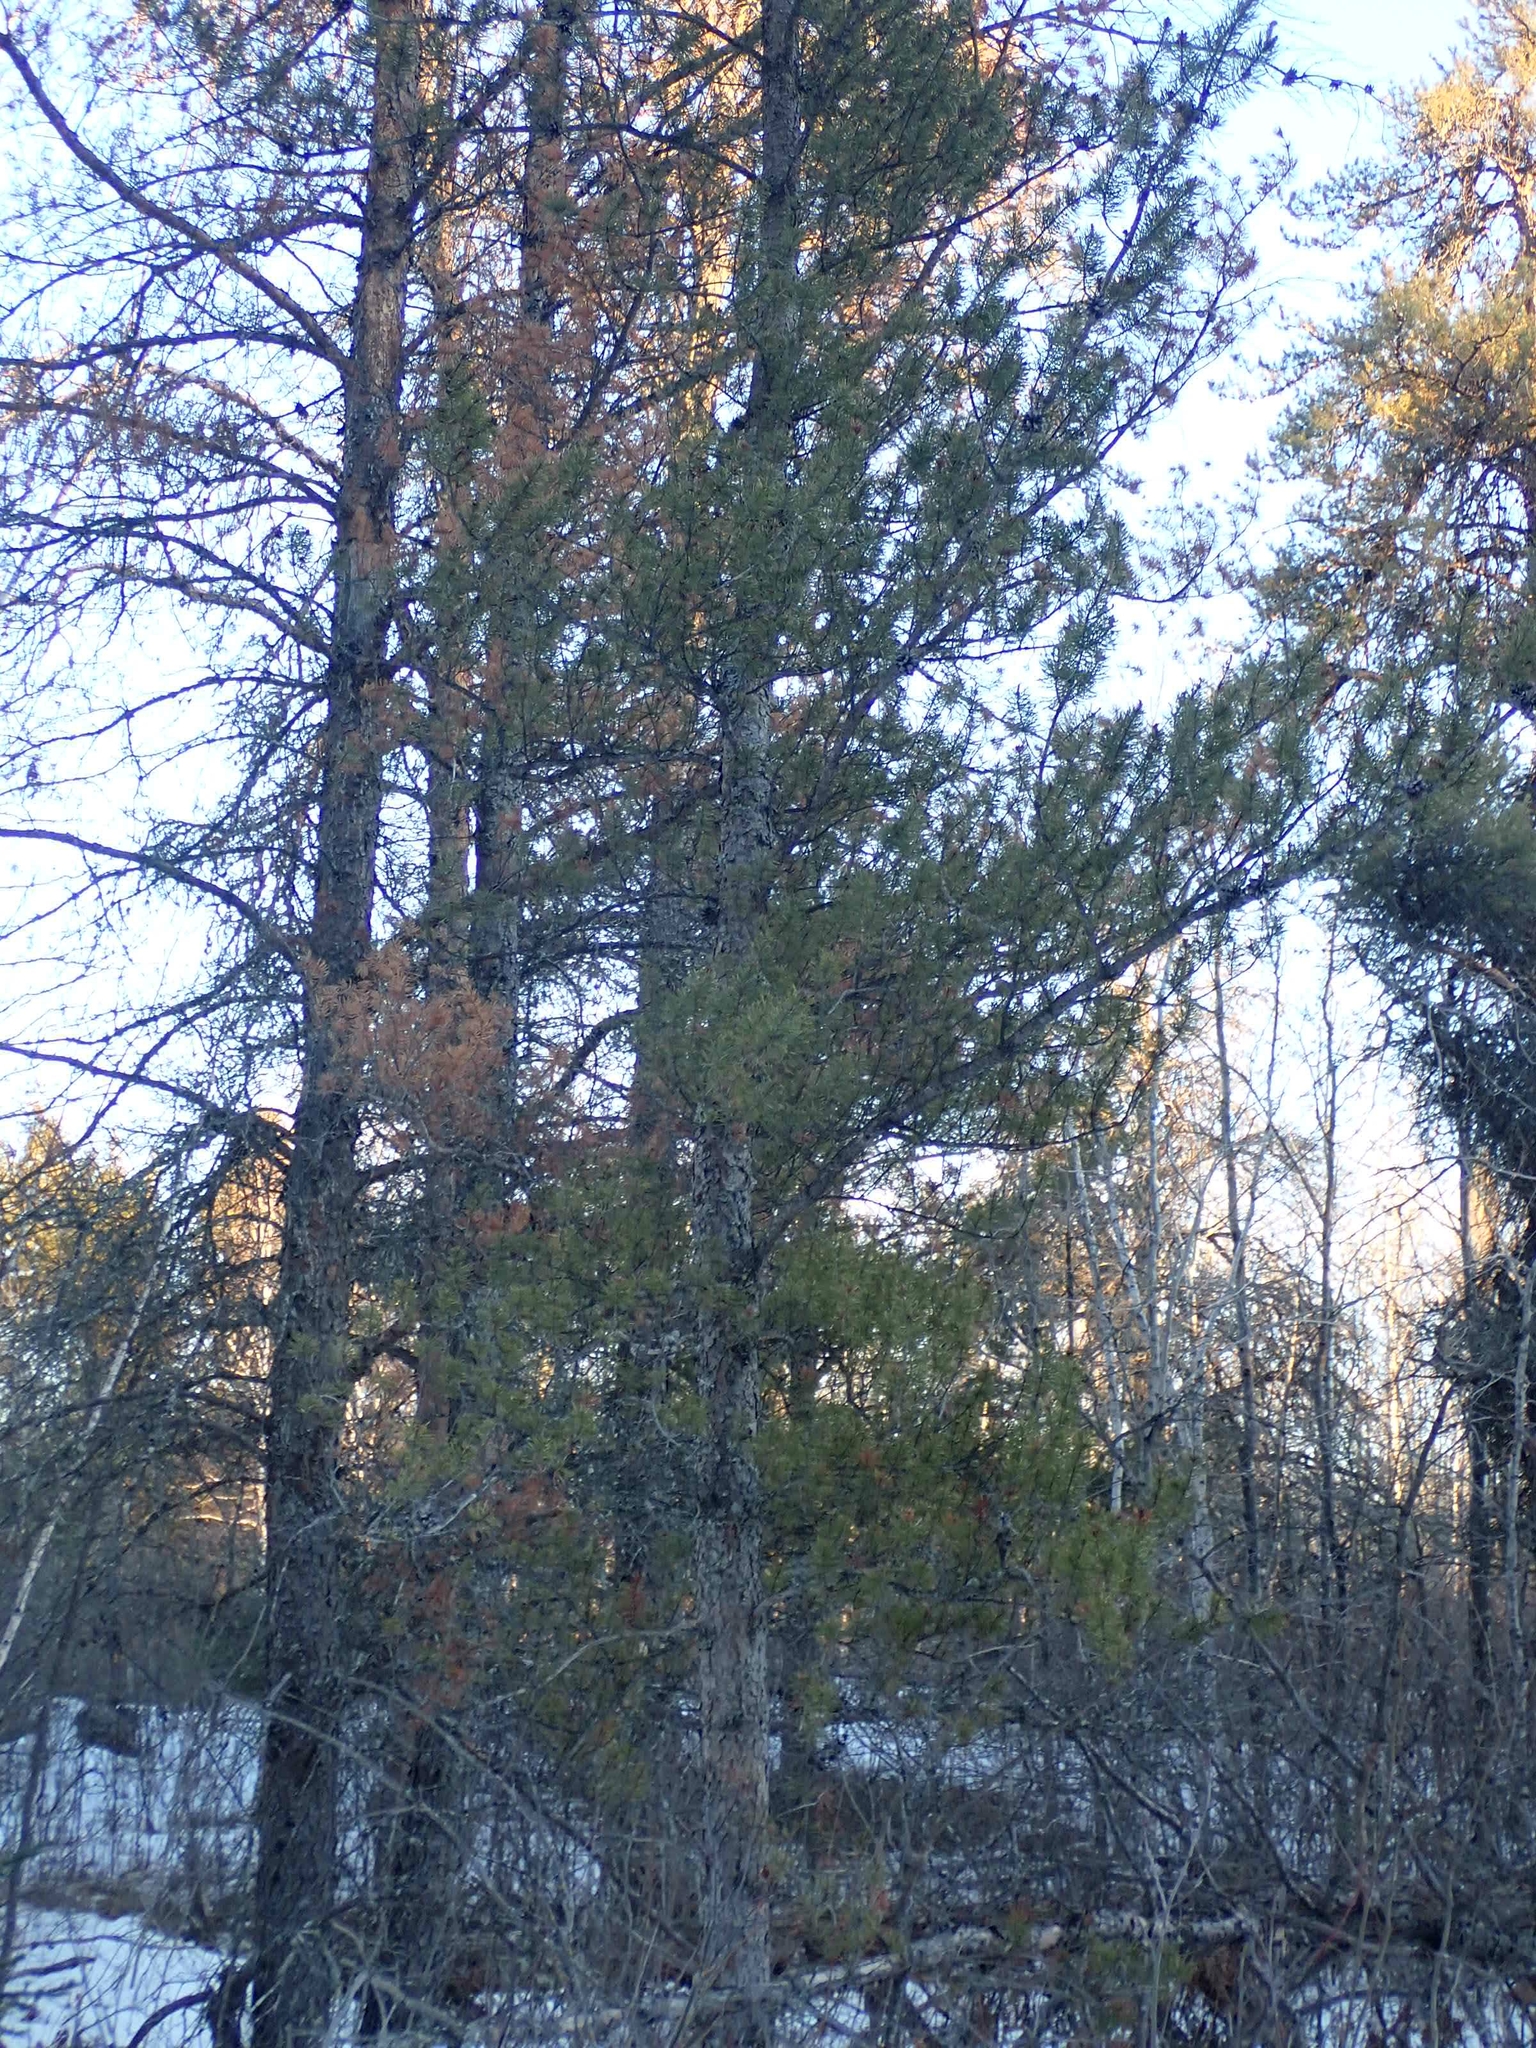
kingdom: Plantae
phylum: Tracheophyta
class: Pinopsida
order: Pinales
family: Pinaceae
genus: Pinus
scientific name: Pinus banksiana
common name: Jack pine
